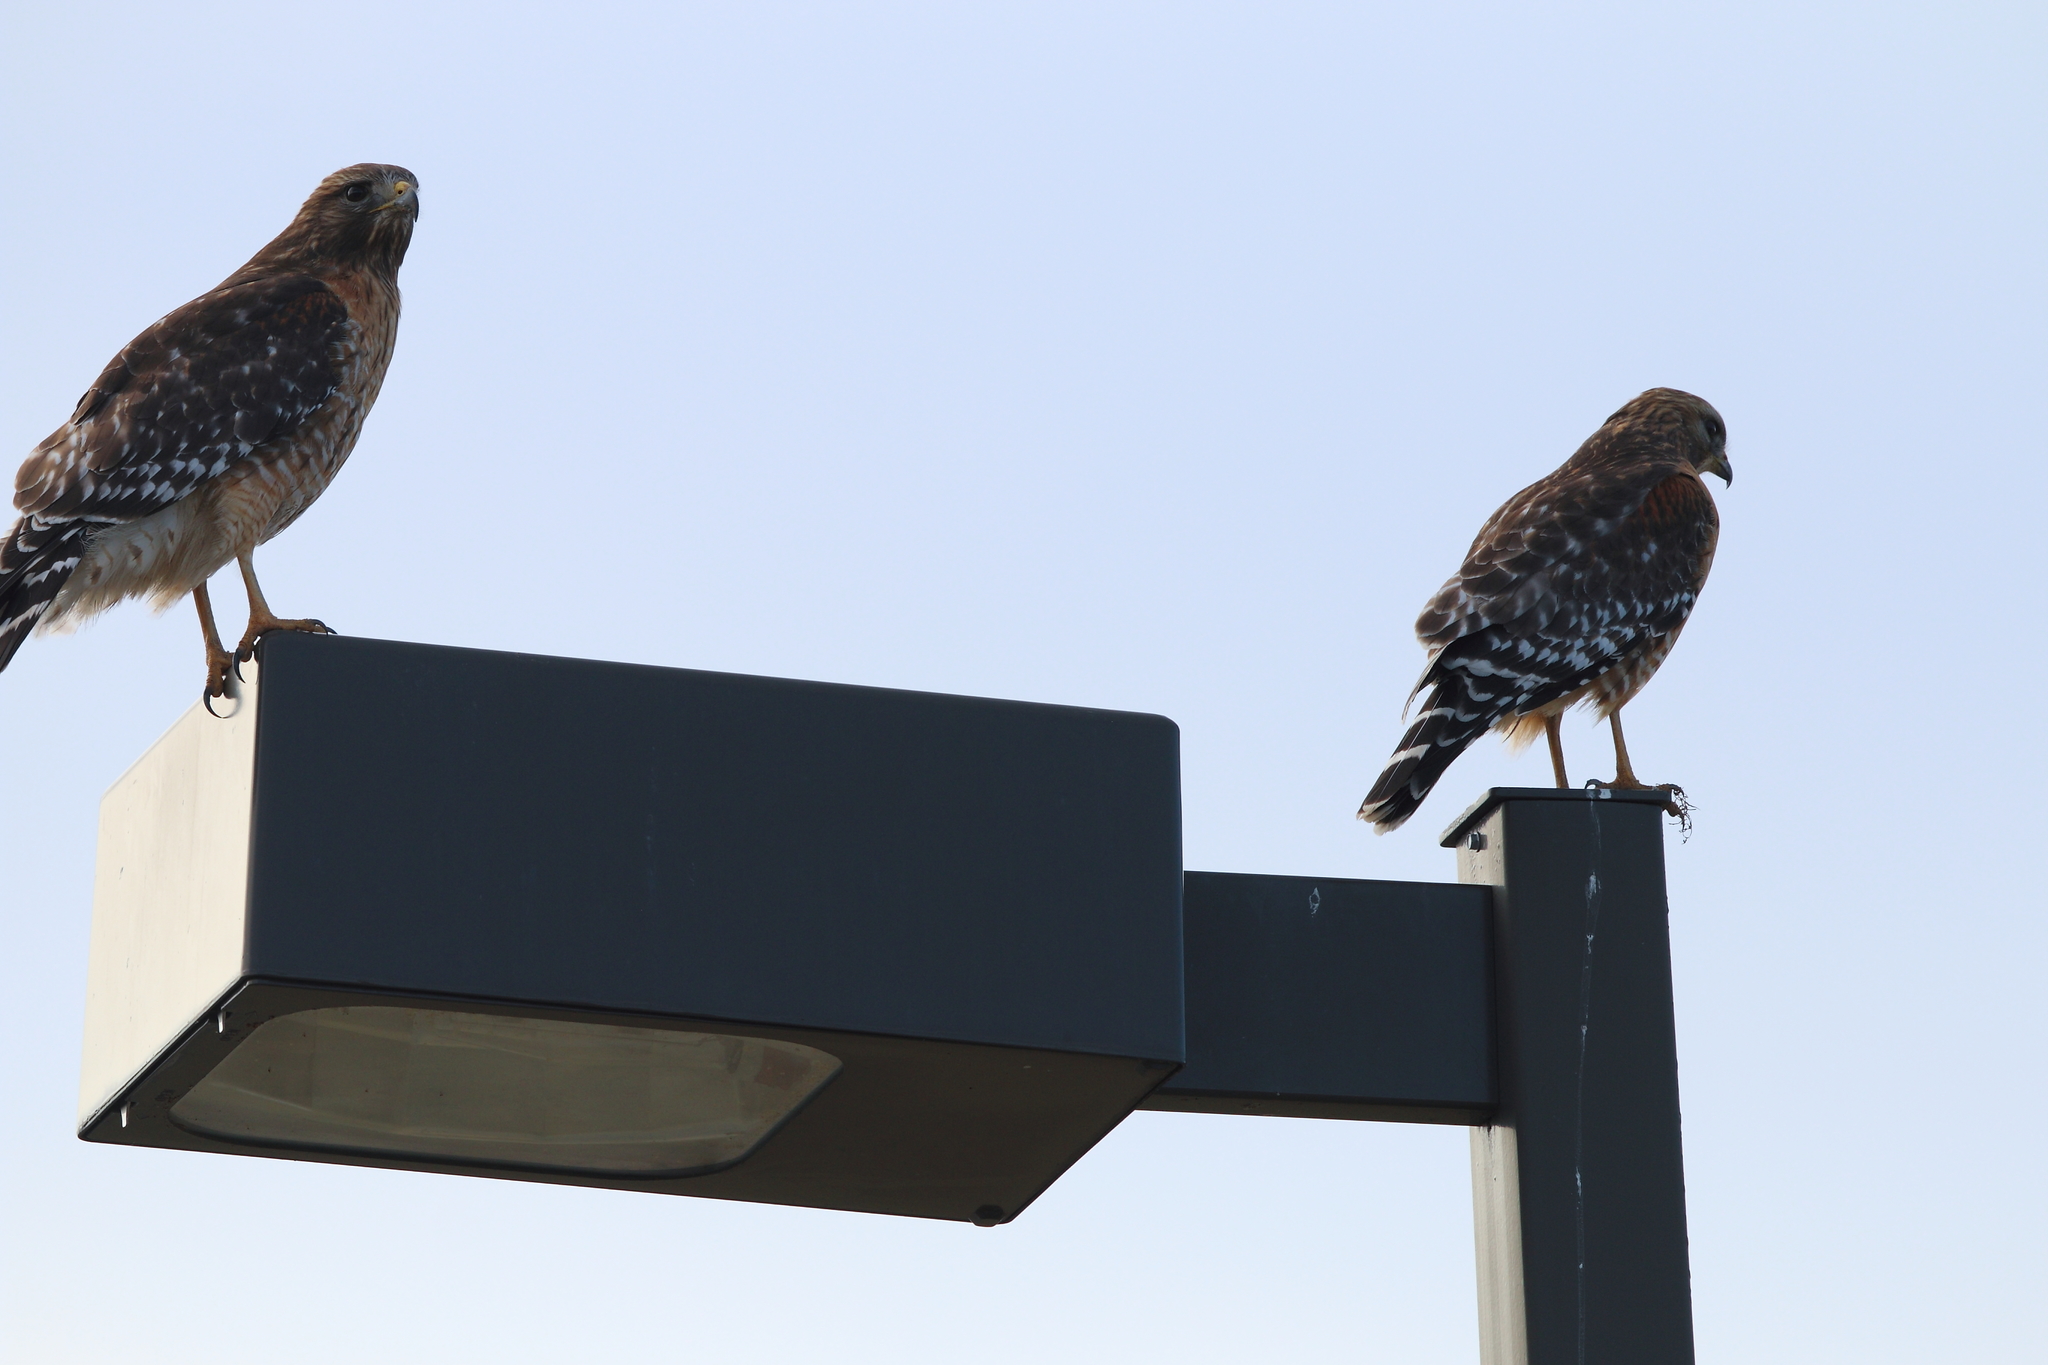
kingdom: Animalia
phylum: Chordata
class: Aves
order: Accipitriformes
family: Accipitridae
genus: Buteo
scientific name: Buteo lineatus
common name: Red-shouldered hawk
